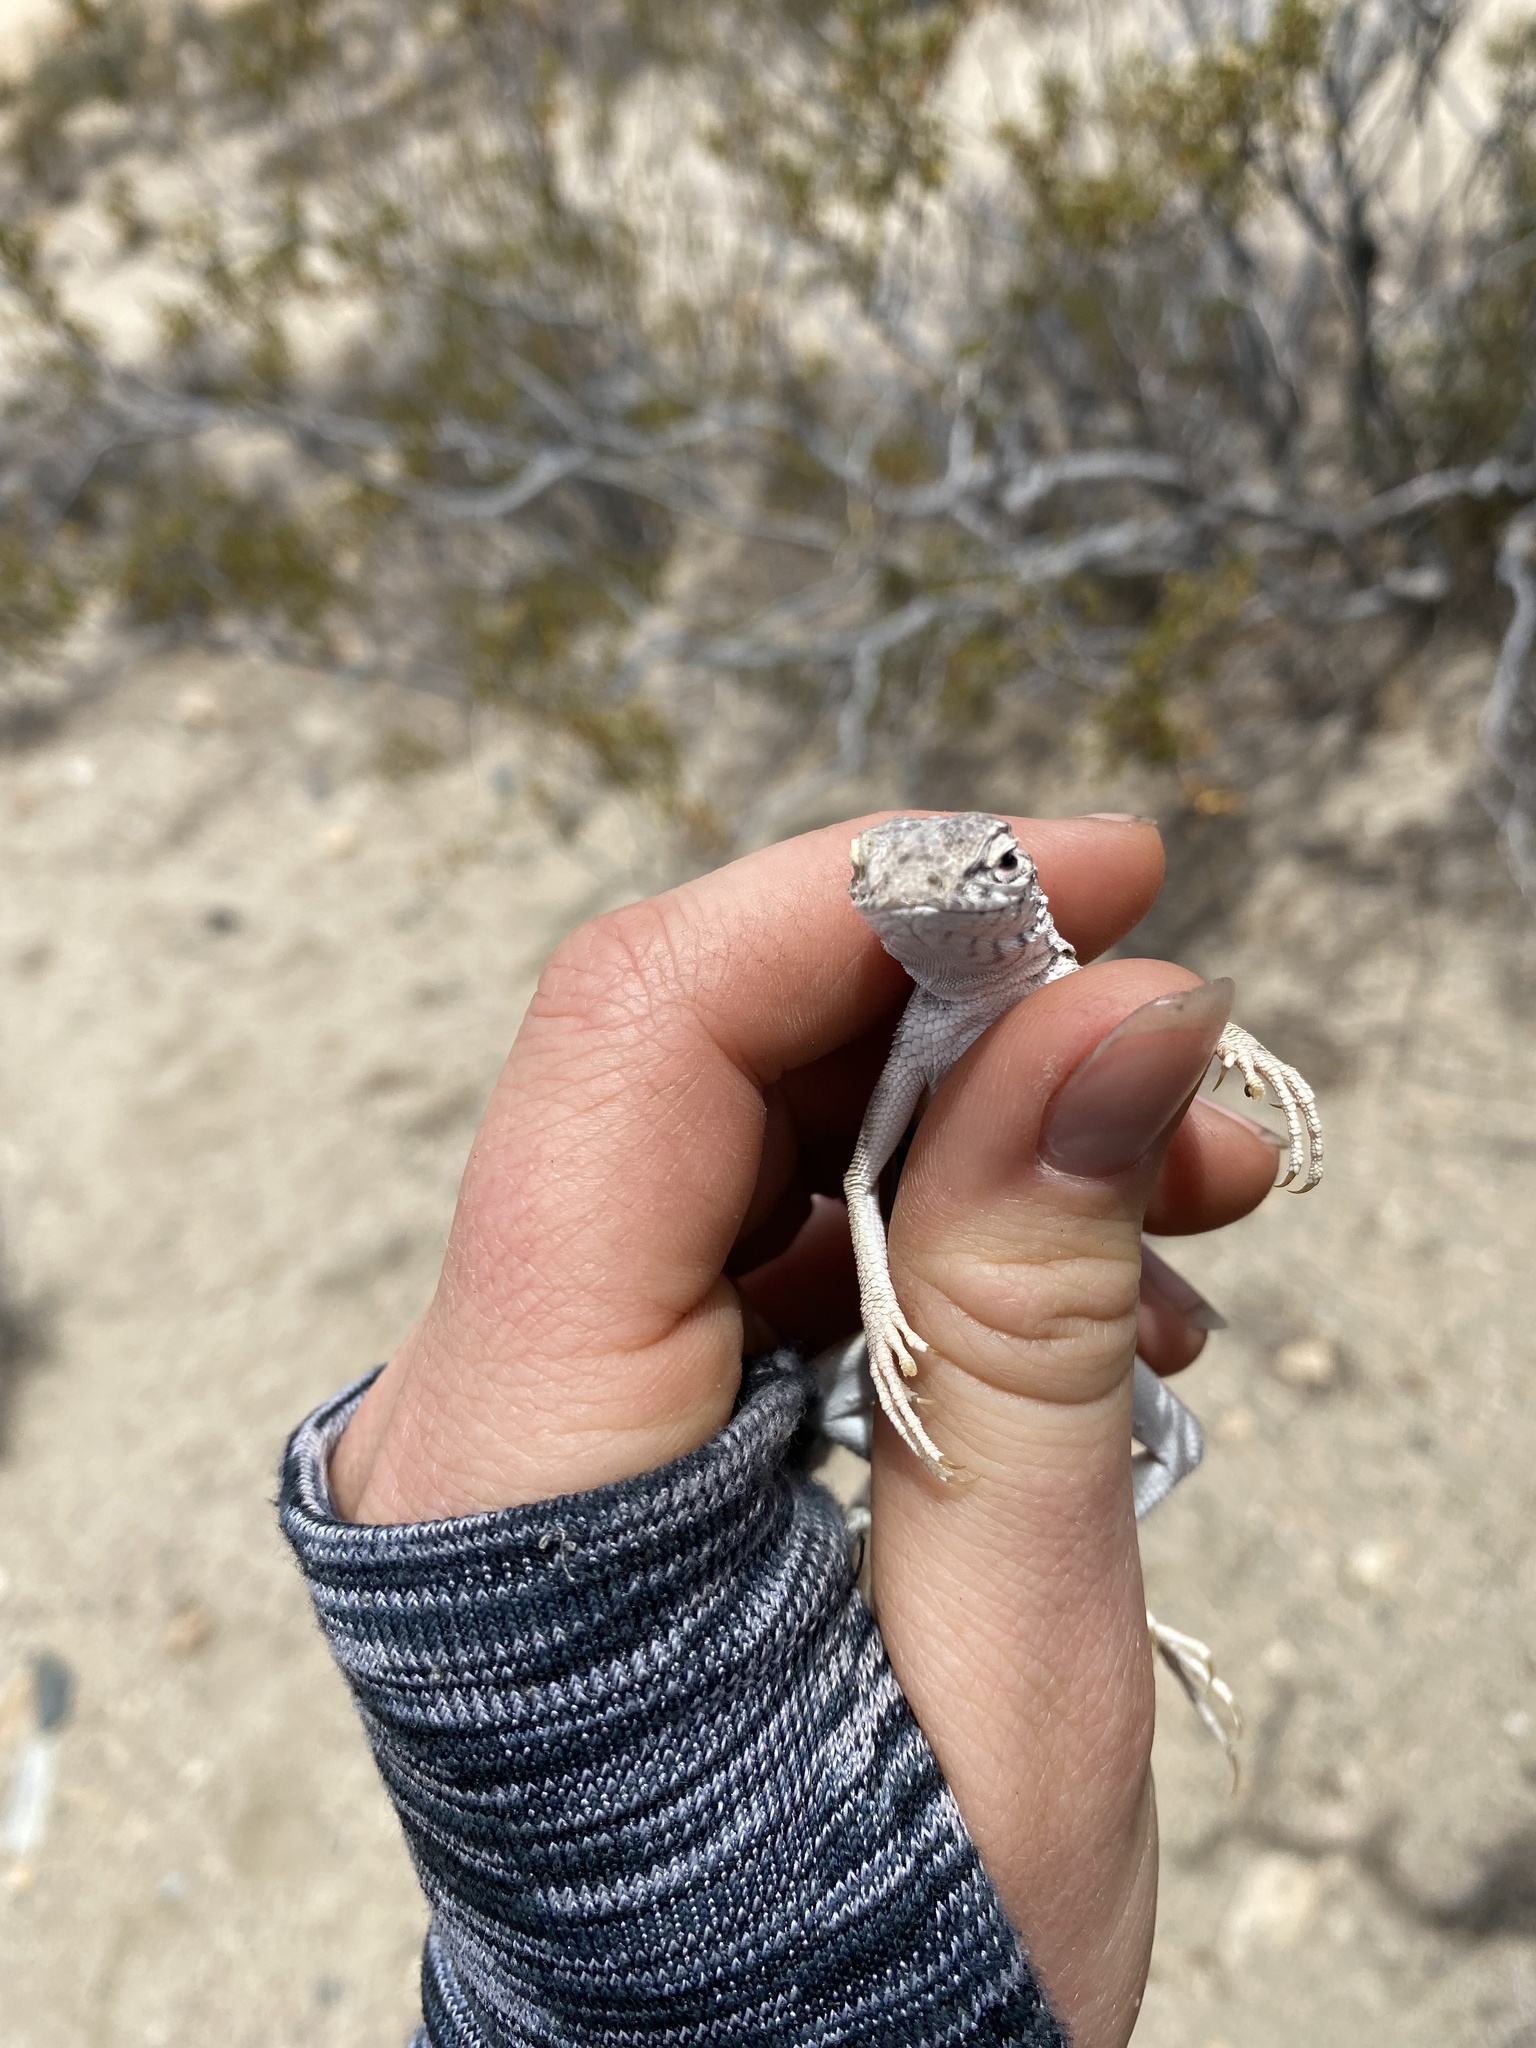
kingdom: Animalia
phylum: Chordata
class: Squamata
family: Phrynosomatidae
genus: Callisaurus
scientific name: Callisaurus draconoides
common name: Zebra-tailed lizard
